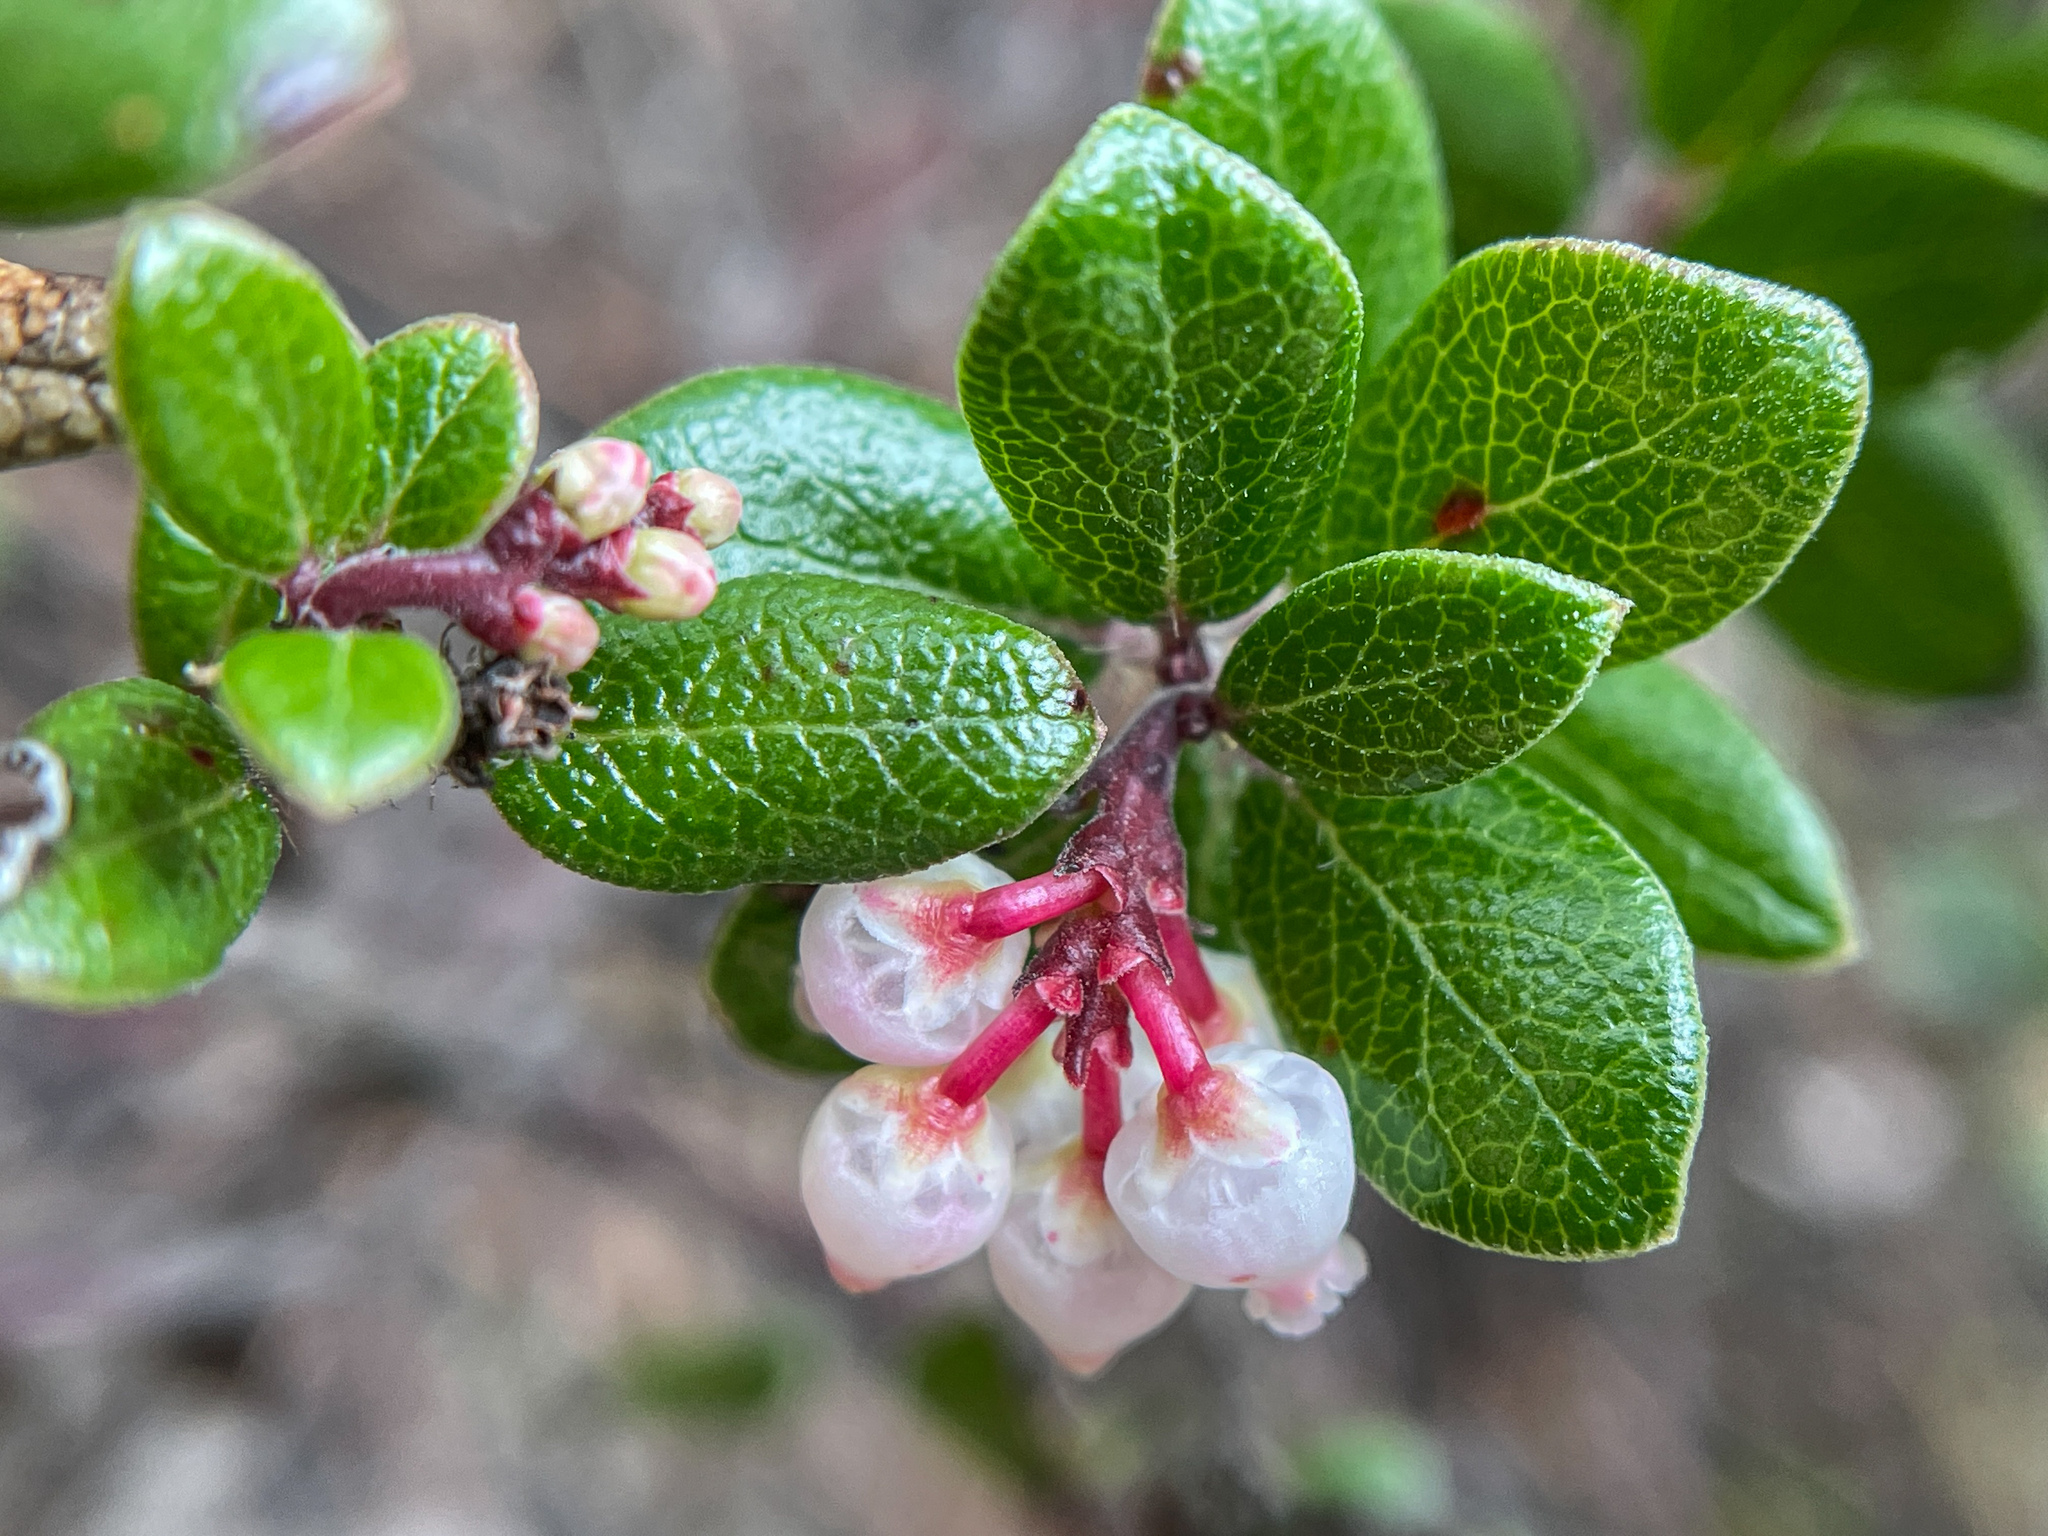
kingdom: Plantae
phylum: Tracheophyta
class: Magnoliopsida
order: Ericales
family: Ericaceae
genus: Arctostaphylos
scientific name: Arctostaphylos nummularia
